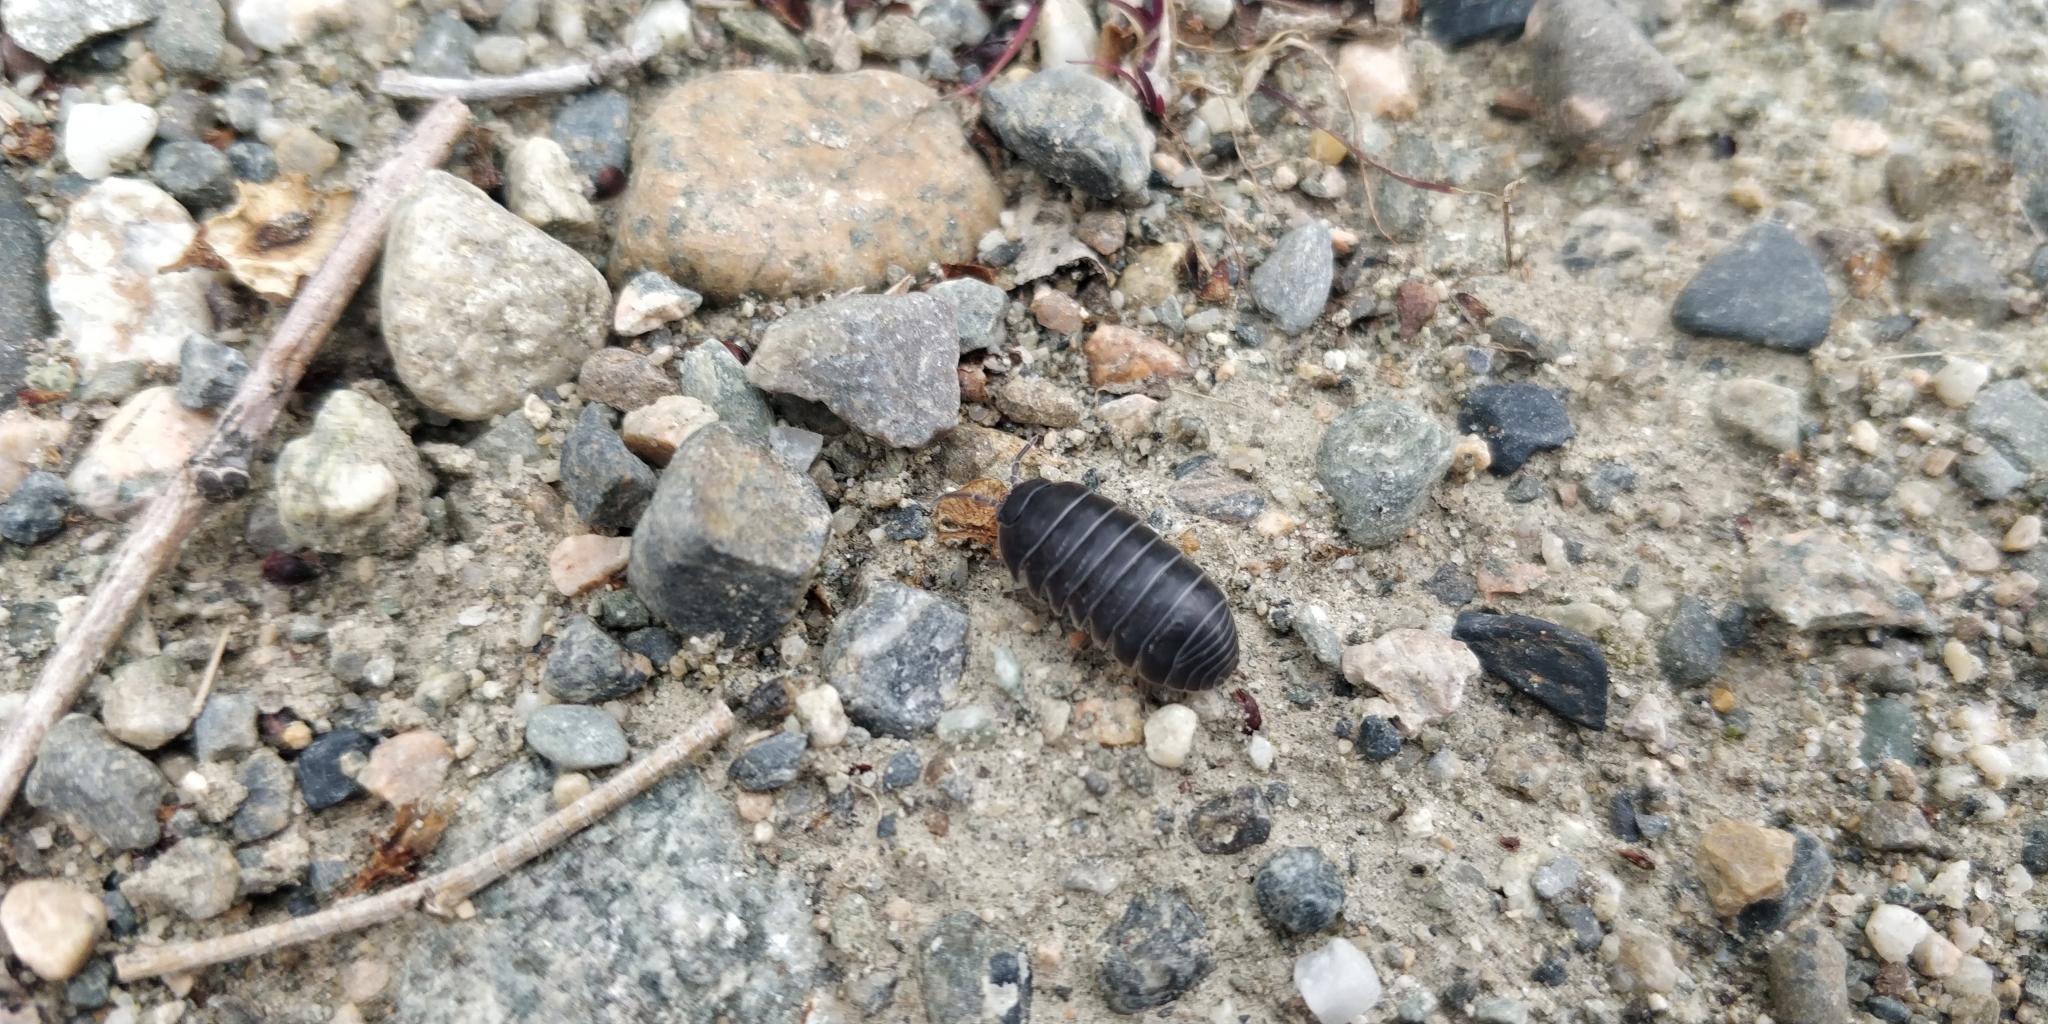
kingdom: Animalia
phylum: Arthropoda
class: Malacostraca
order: Isopoda
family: Armadillidiidae
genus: Armadillidium
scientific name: Armadillidium vulgare
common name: Common pill woodlouse
